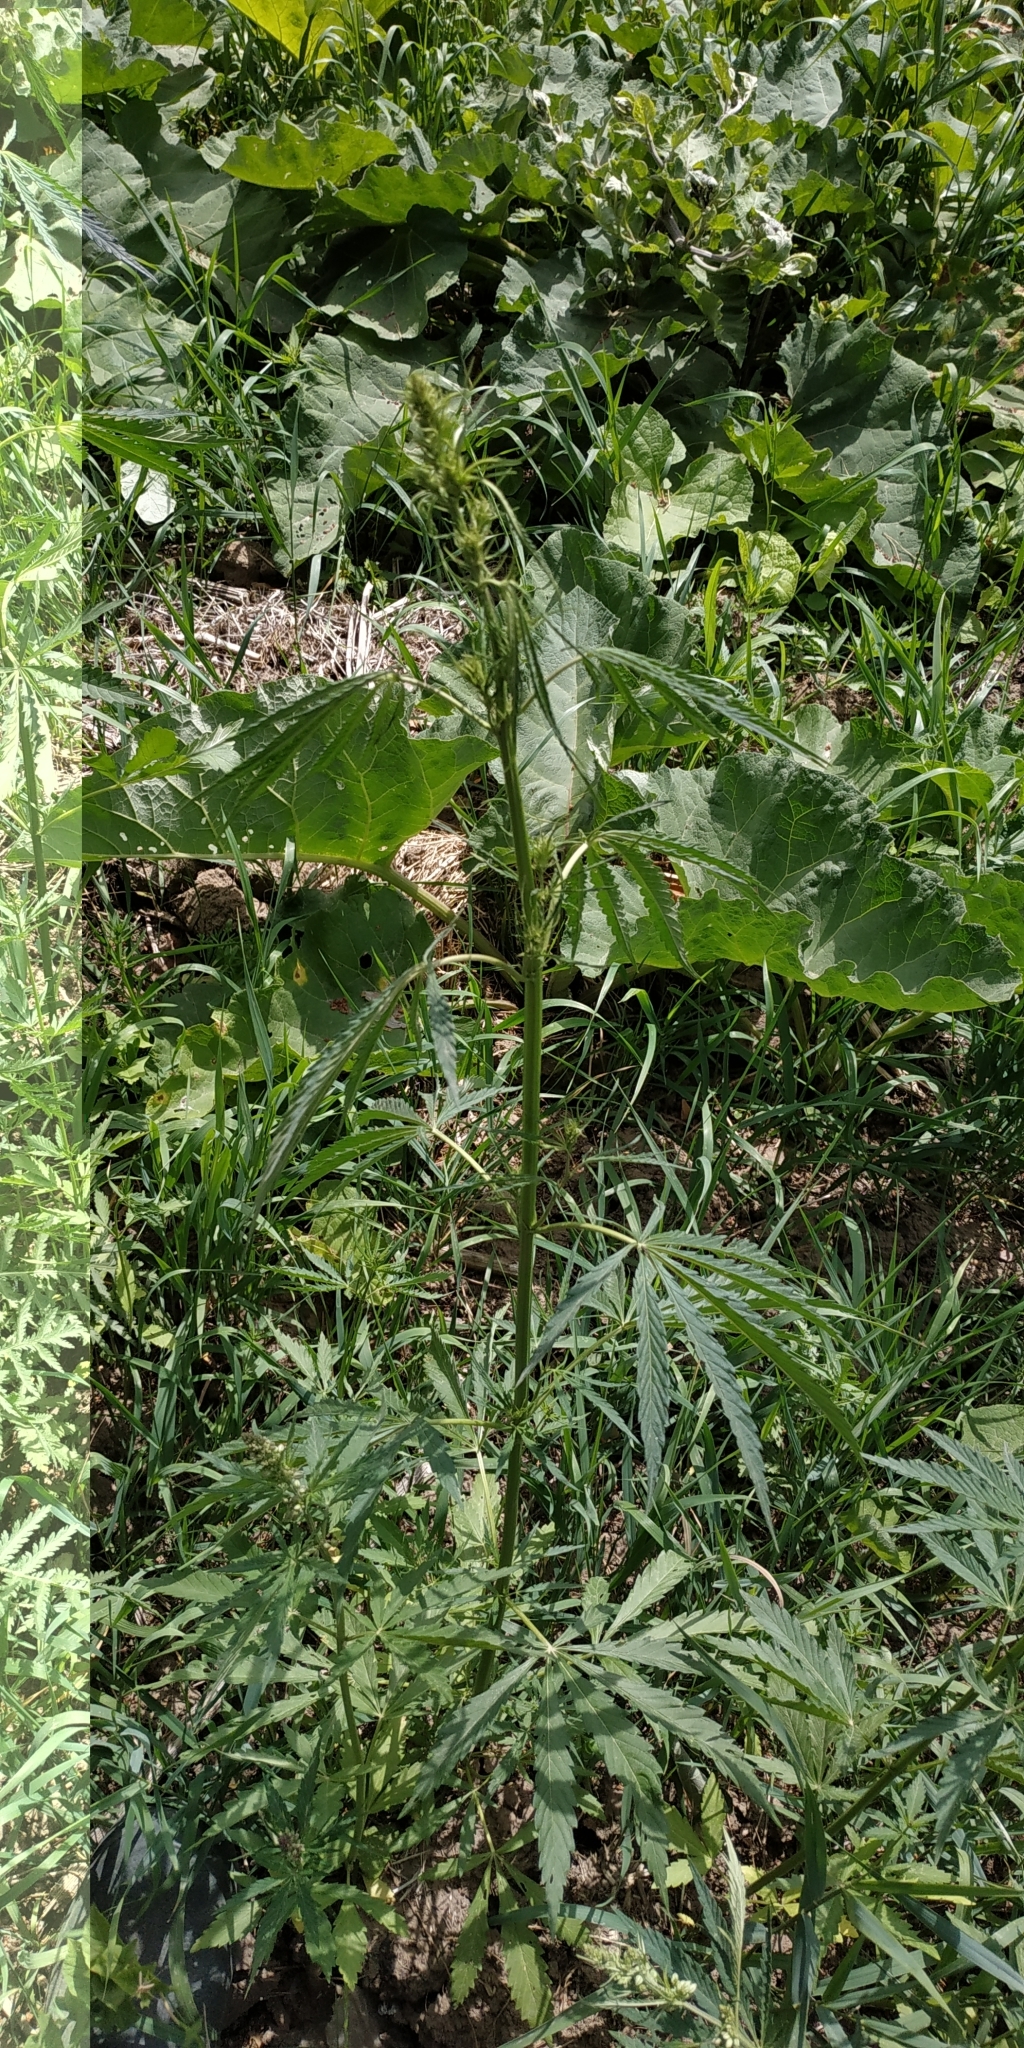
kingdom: Plantae
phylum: Tracheophyta
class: Magnoliopsida
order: Rosales
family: Cannabaceae
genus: Cannabis
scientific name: Cannabis sativa
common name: Hemp
